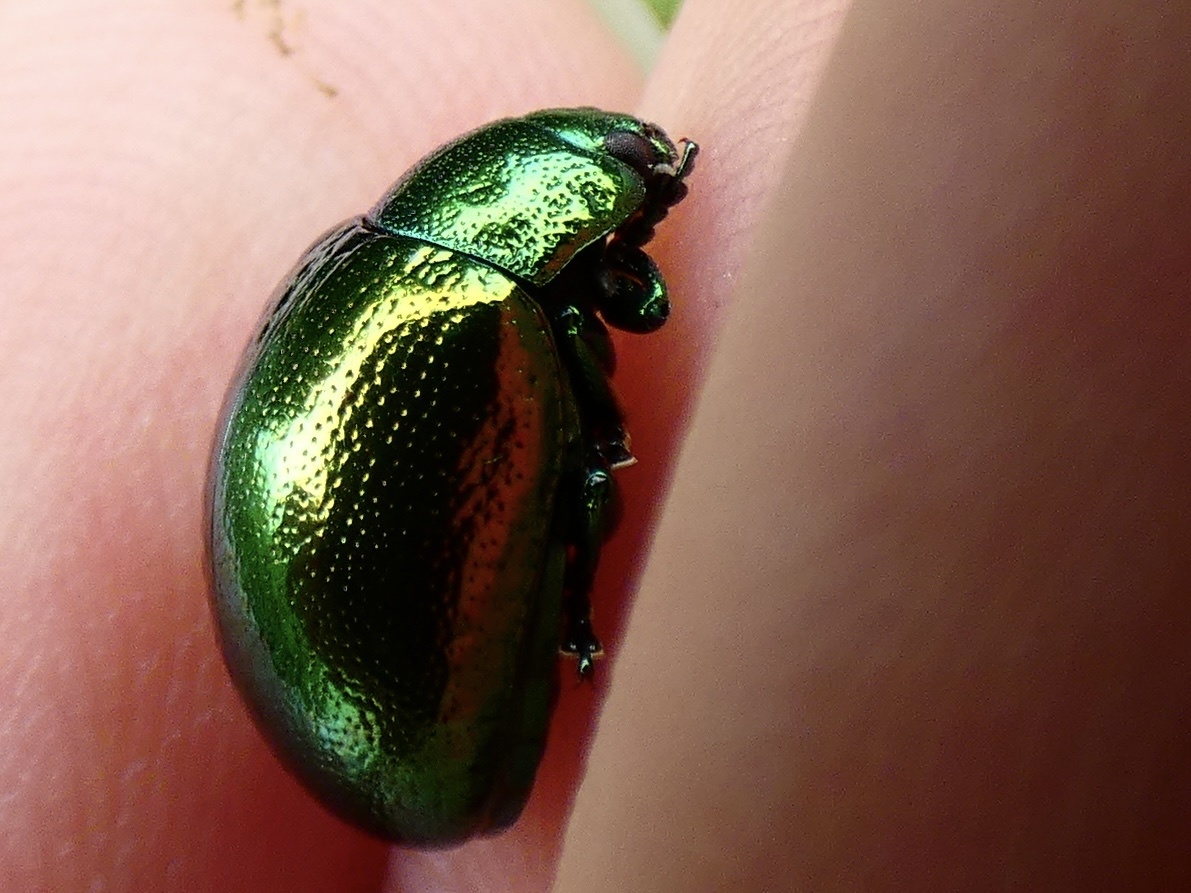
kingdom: Animalia
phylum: Arthropoda
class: Insecta
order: Coleoptera
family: Chrysomelidae
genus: Chrysolina
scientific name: Chrysolina herbacea
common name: Mint leaf beatle
